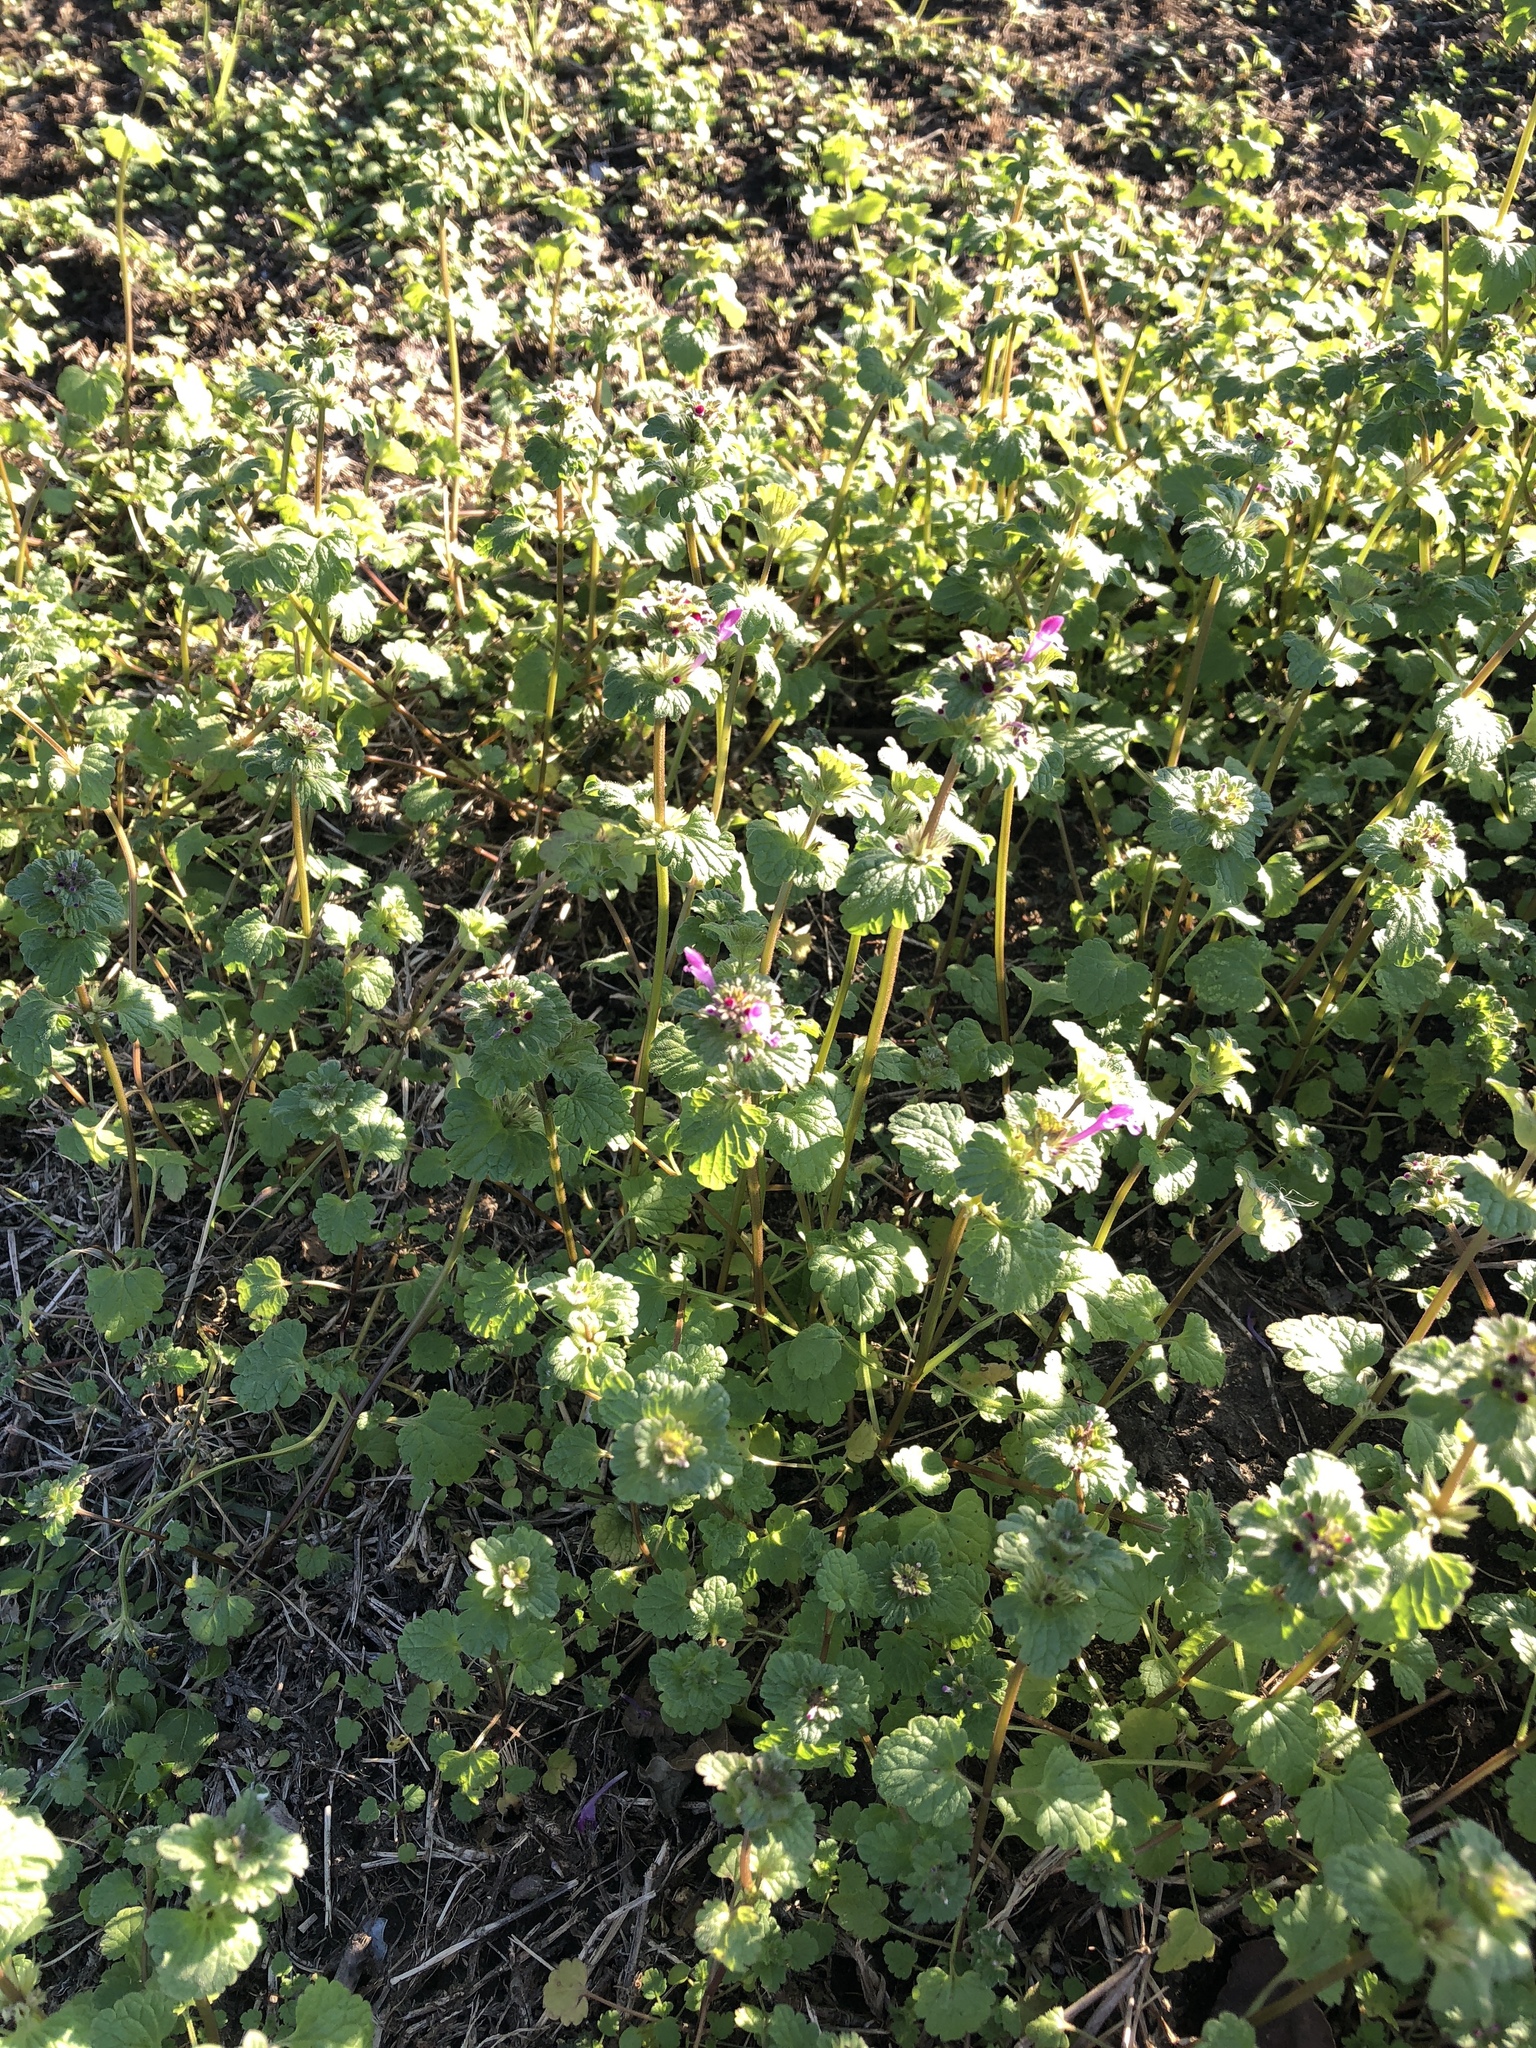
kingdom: Plantae
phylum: Tracheophyta
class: Magnoliopsida
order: Lamiales
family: Lamiaceae
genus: Lamium
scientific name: Lamium amplexicaule
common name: Henbit dead-nettle
